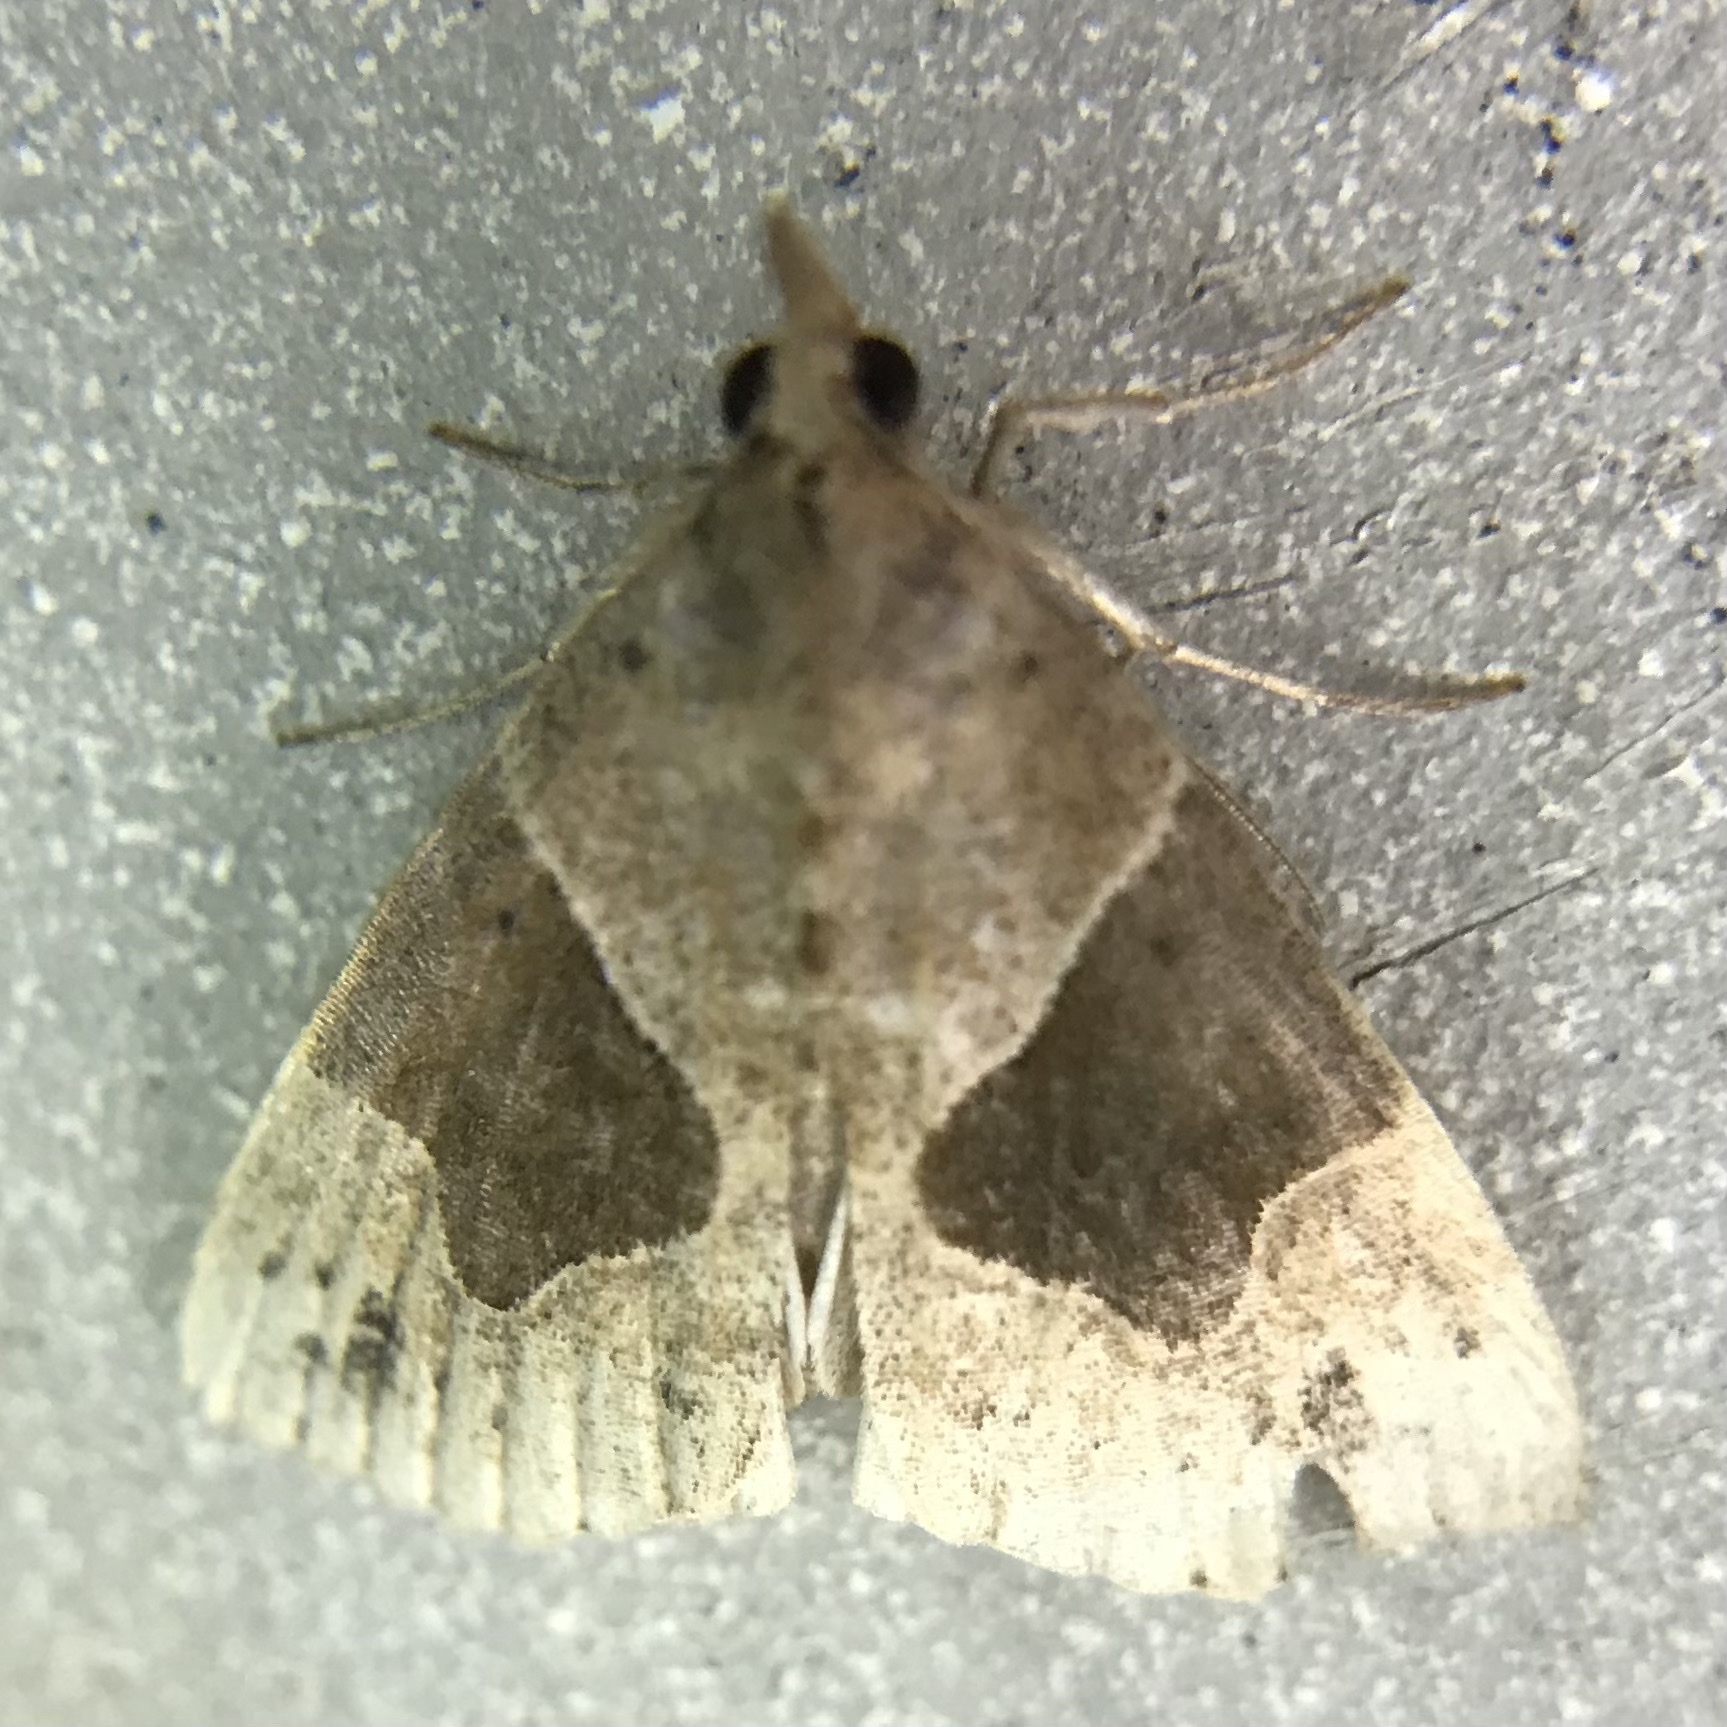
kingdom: Animalia
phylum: Arthropoda
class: Insecta
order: Lepidoptera
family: Erebidae
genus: Hypena
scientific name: Hypena manalis
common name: Flowing-line bomolocha moth
